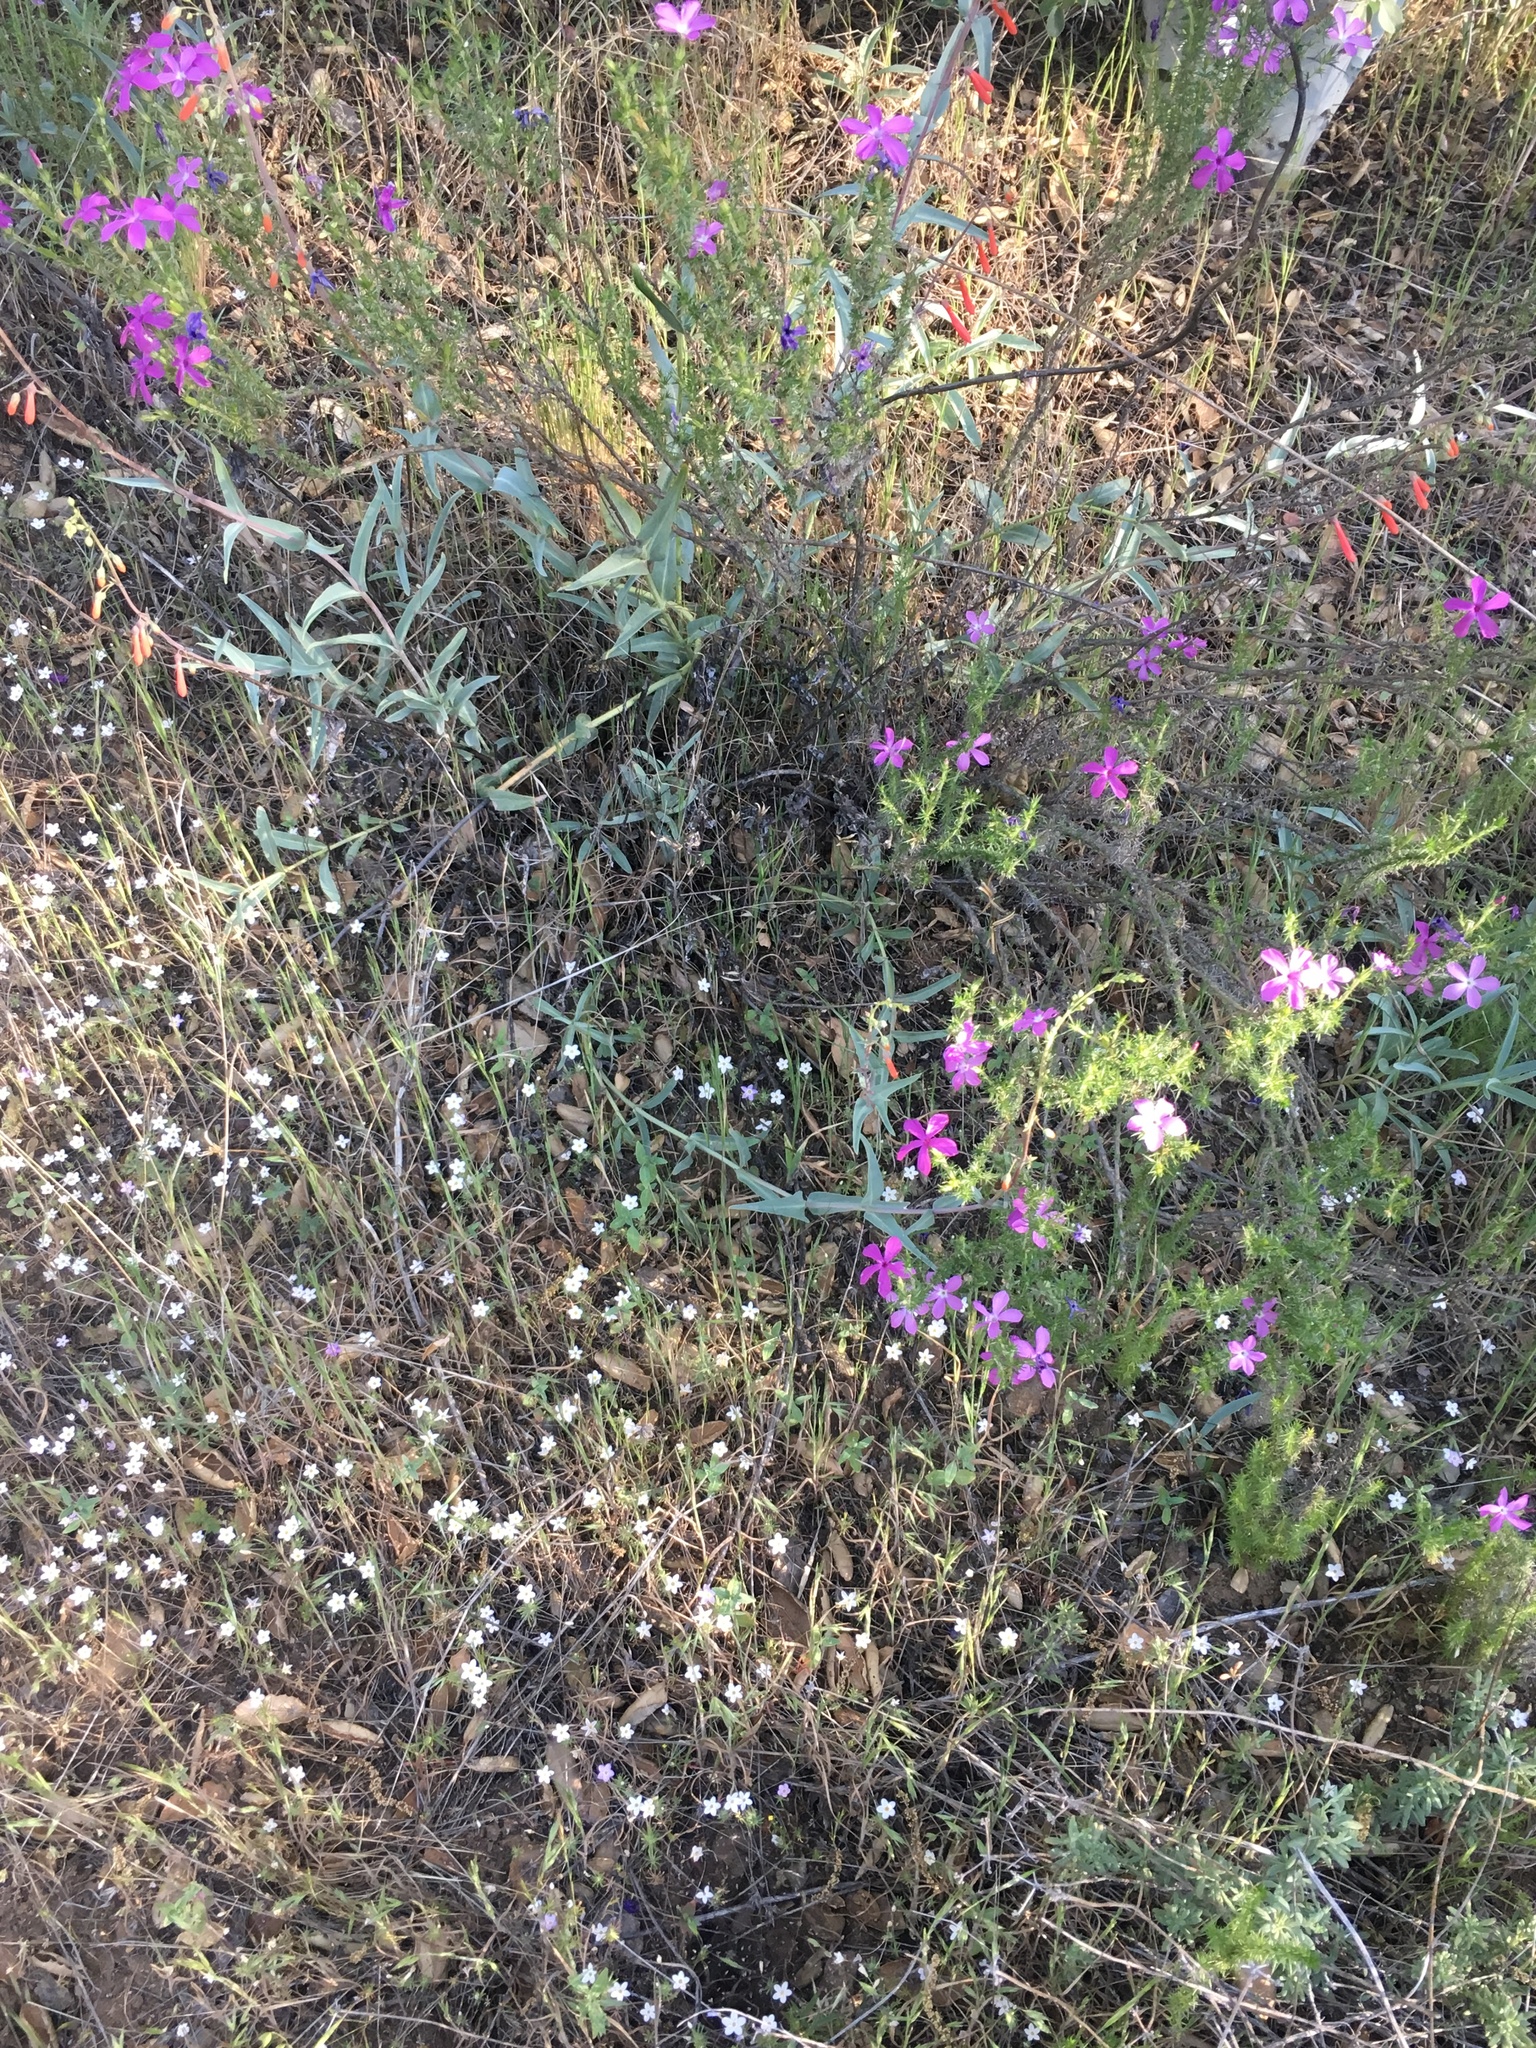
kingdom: Plantae
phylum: Tracheophyta
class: Magnoliopsida
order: Ericales
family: Polemoniaceae
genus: Linanthus
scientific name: Linanthus californicus
